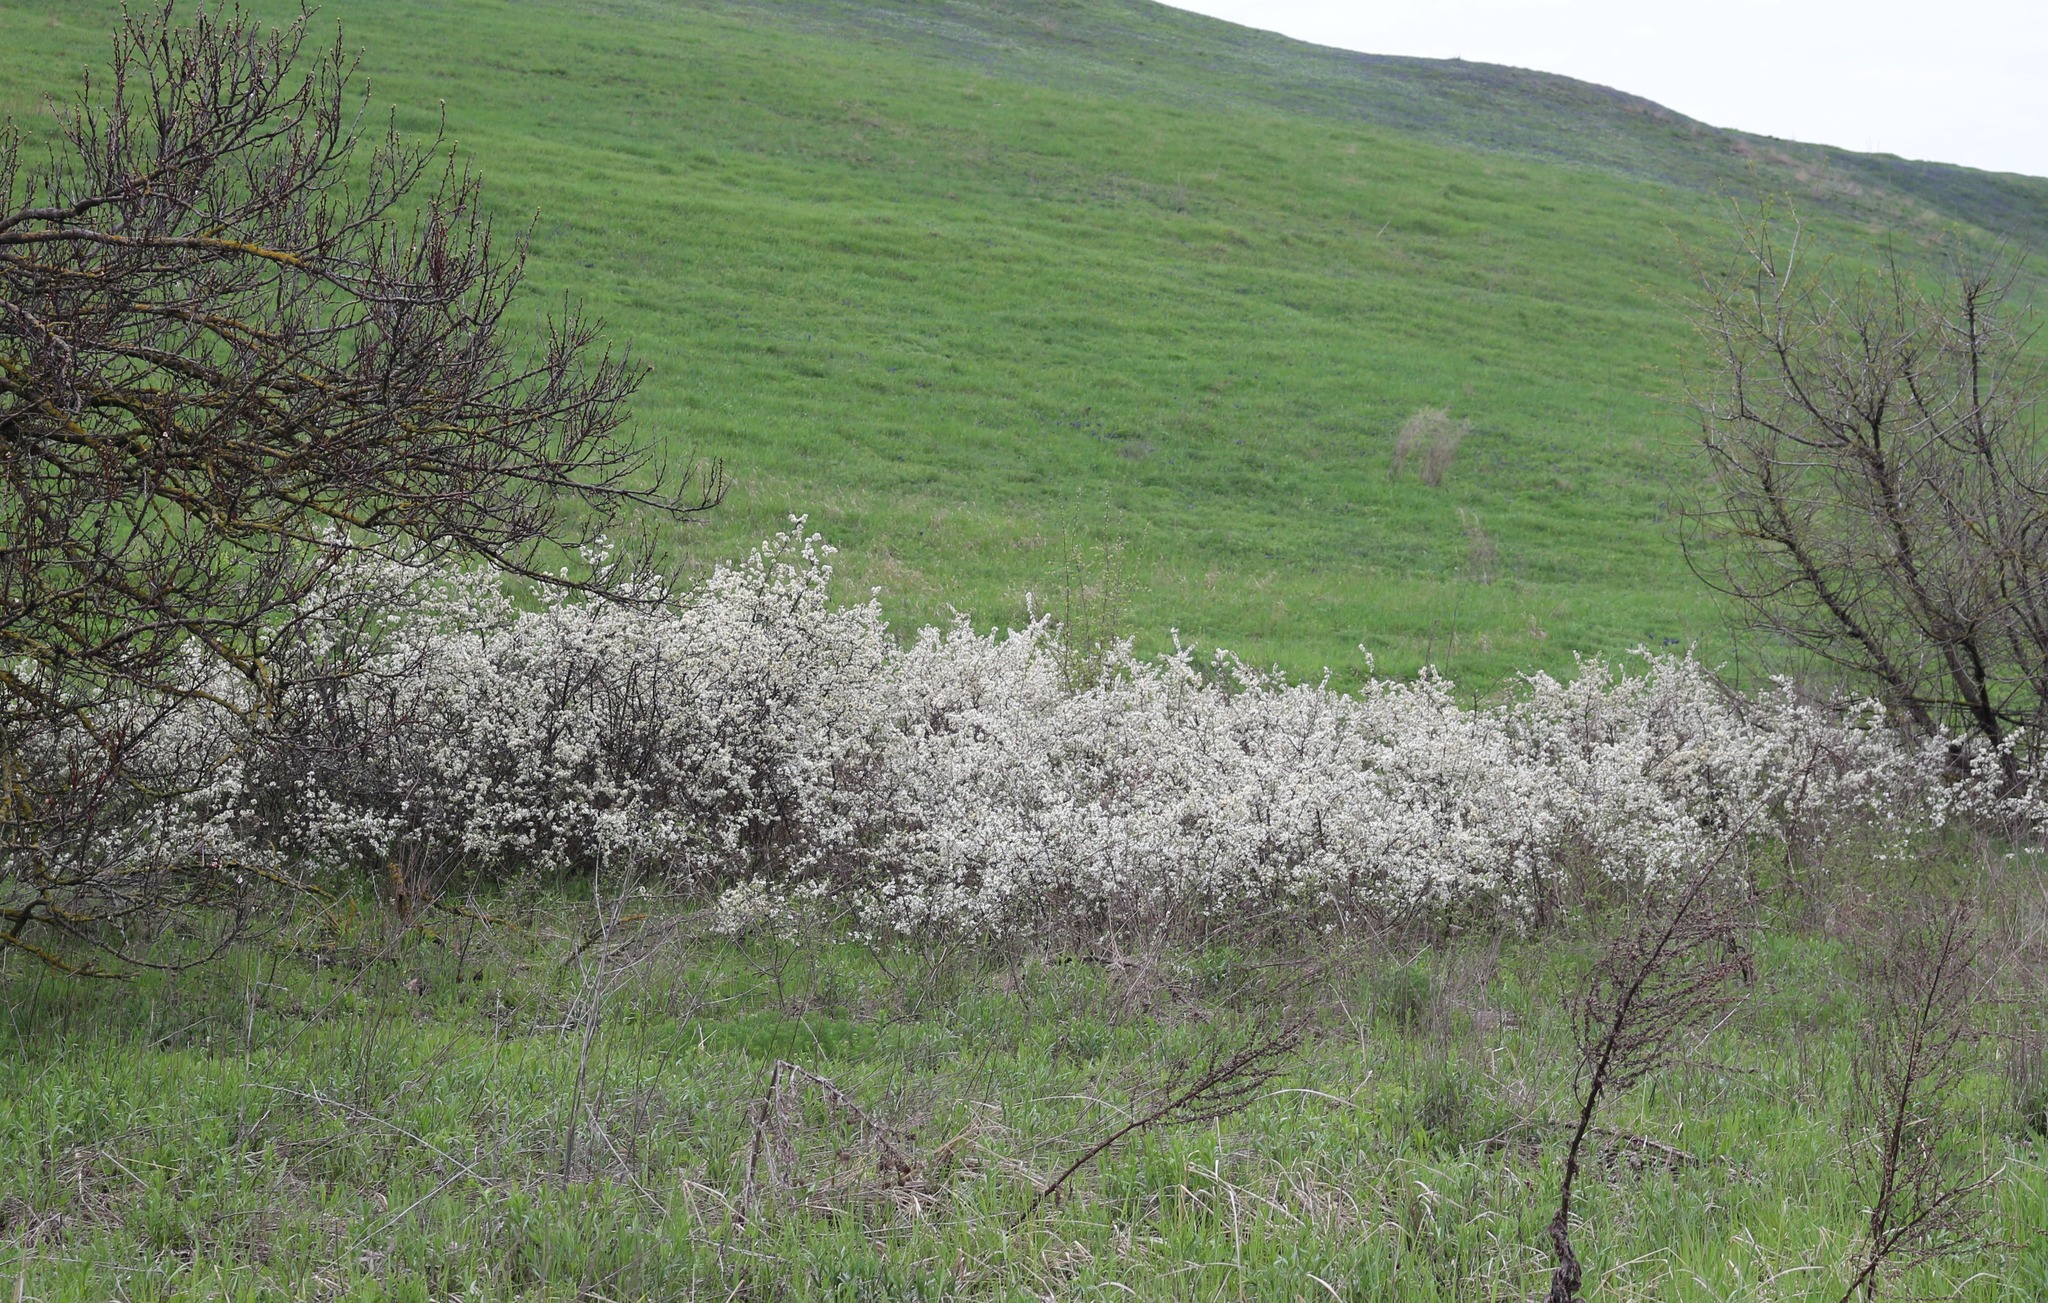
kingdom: Plantae
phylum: Tracheophyta
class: Magnoliopsida
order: Rosales
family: Rosaceae
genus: Prunus
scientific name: Prunus spinosa
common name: Blackthorn
